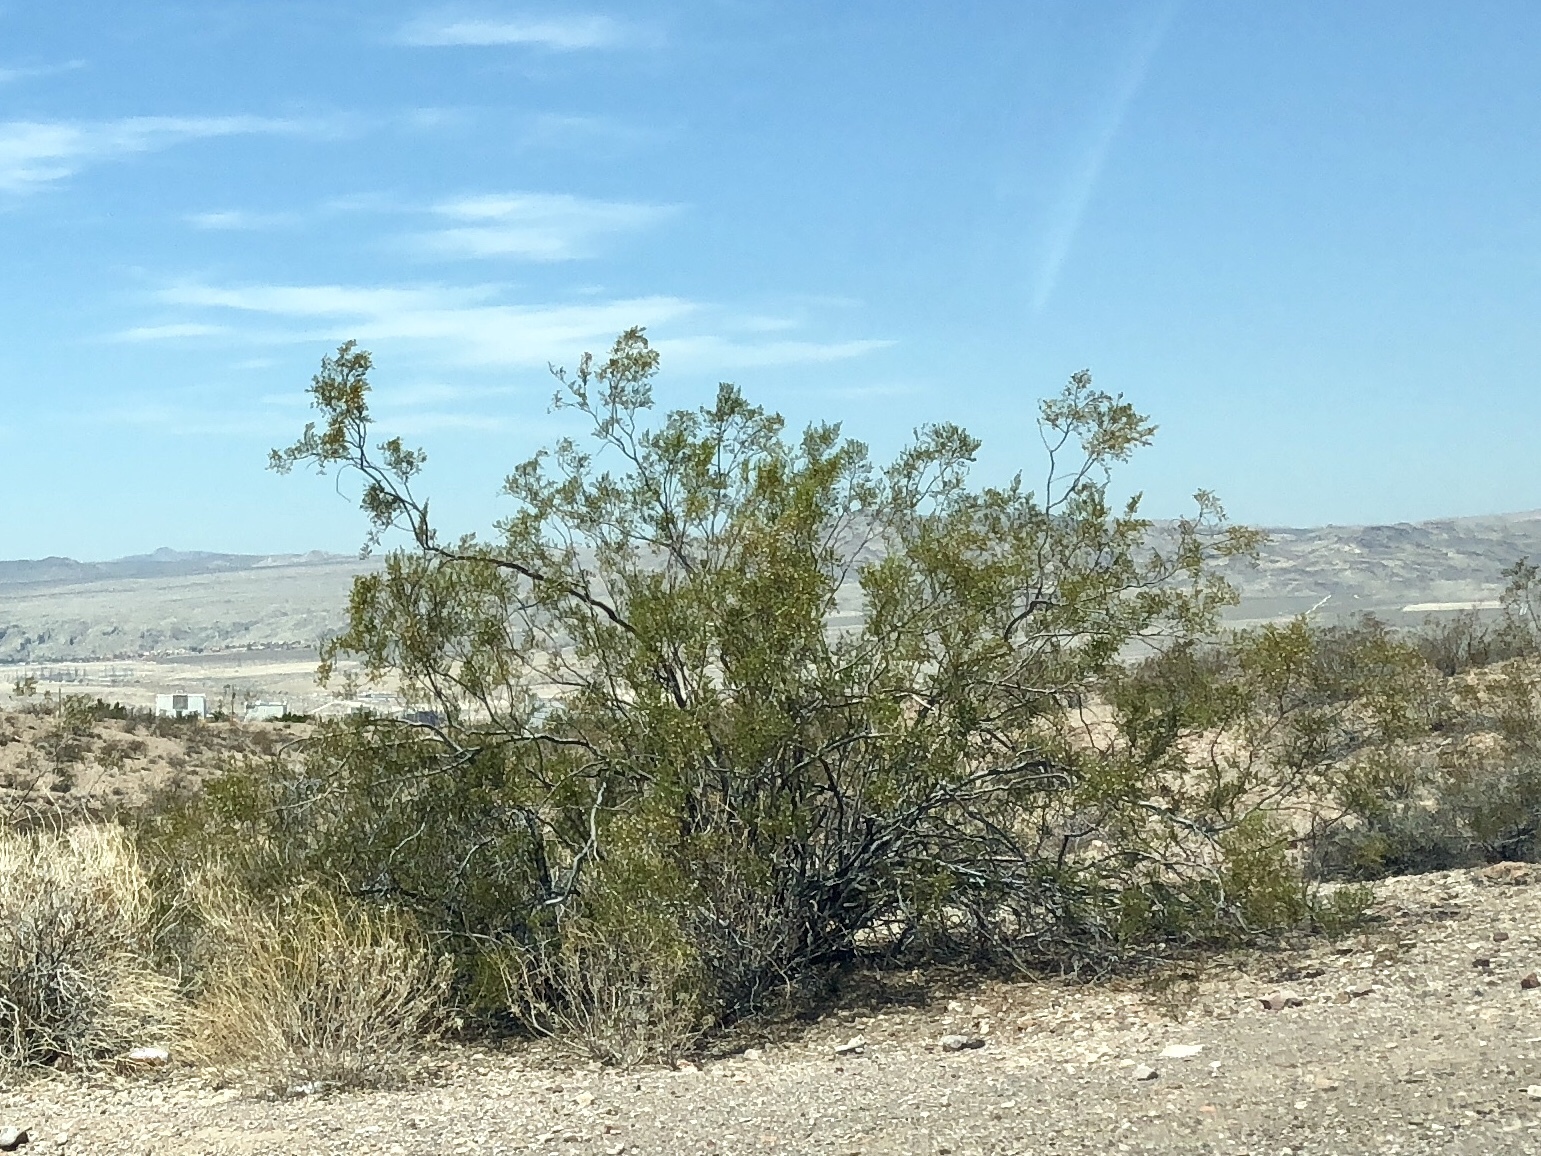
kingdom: Plantae
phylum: Tracheophyta
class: Magnoliopsida
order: Zygophyllales
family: Zygophyllaceae
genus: Larrea
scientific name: Larrea tridentata
